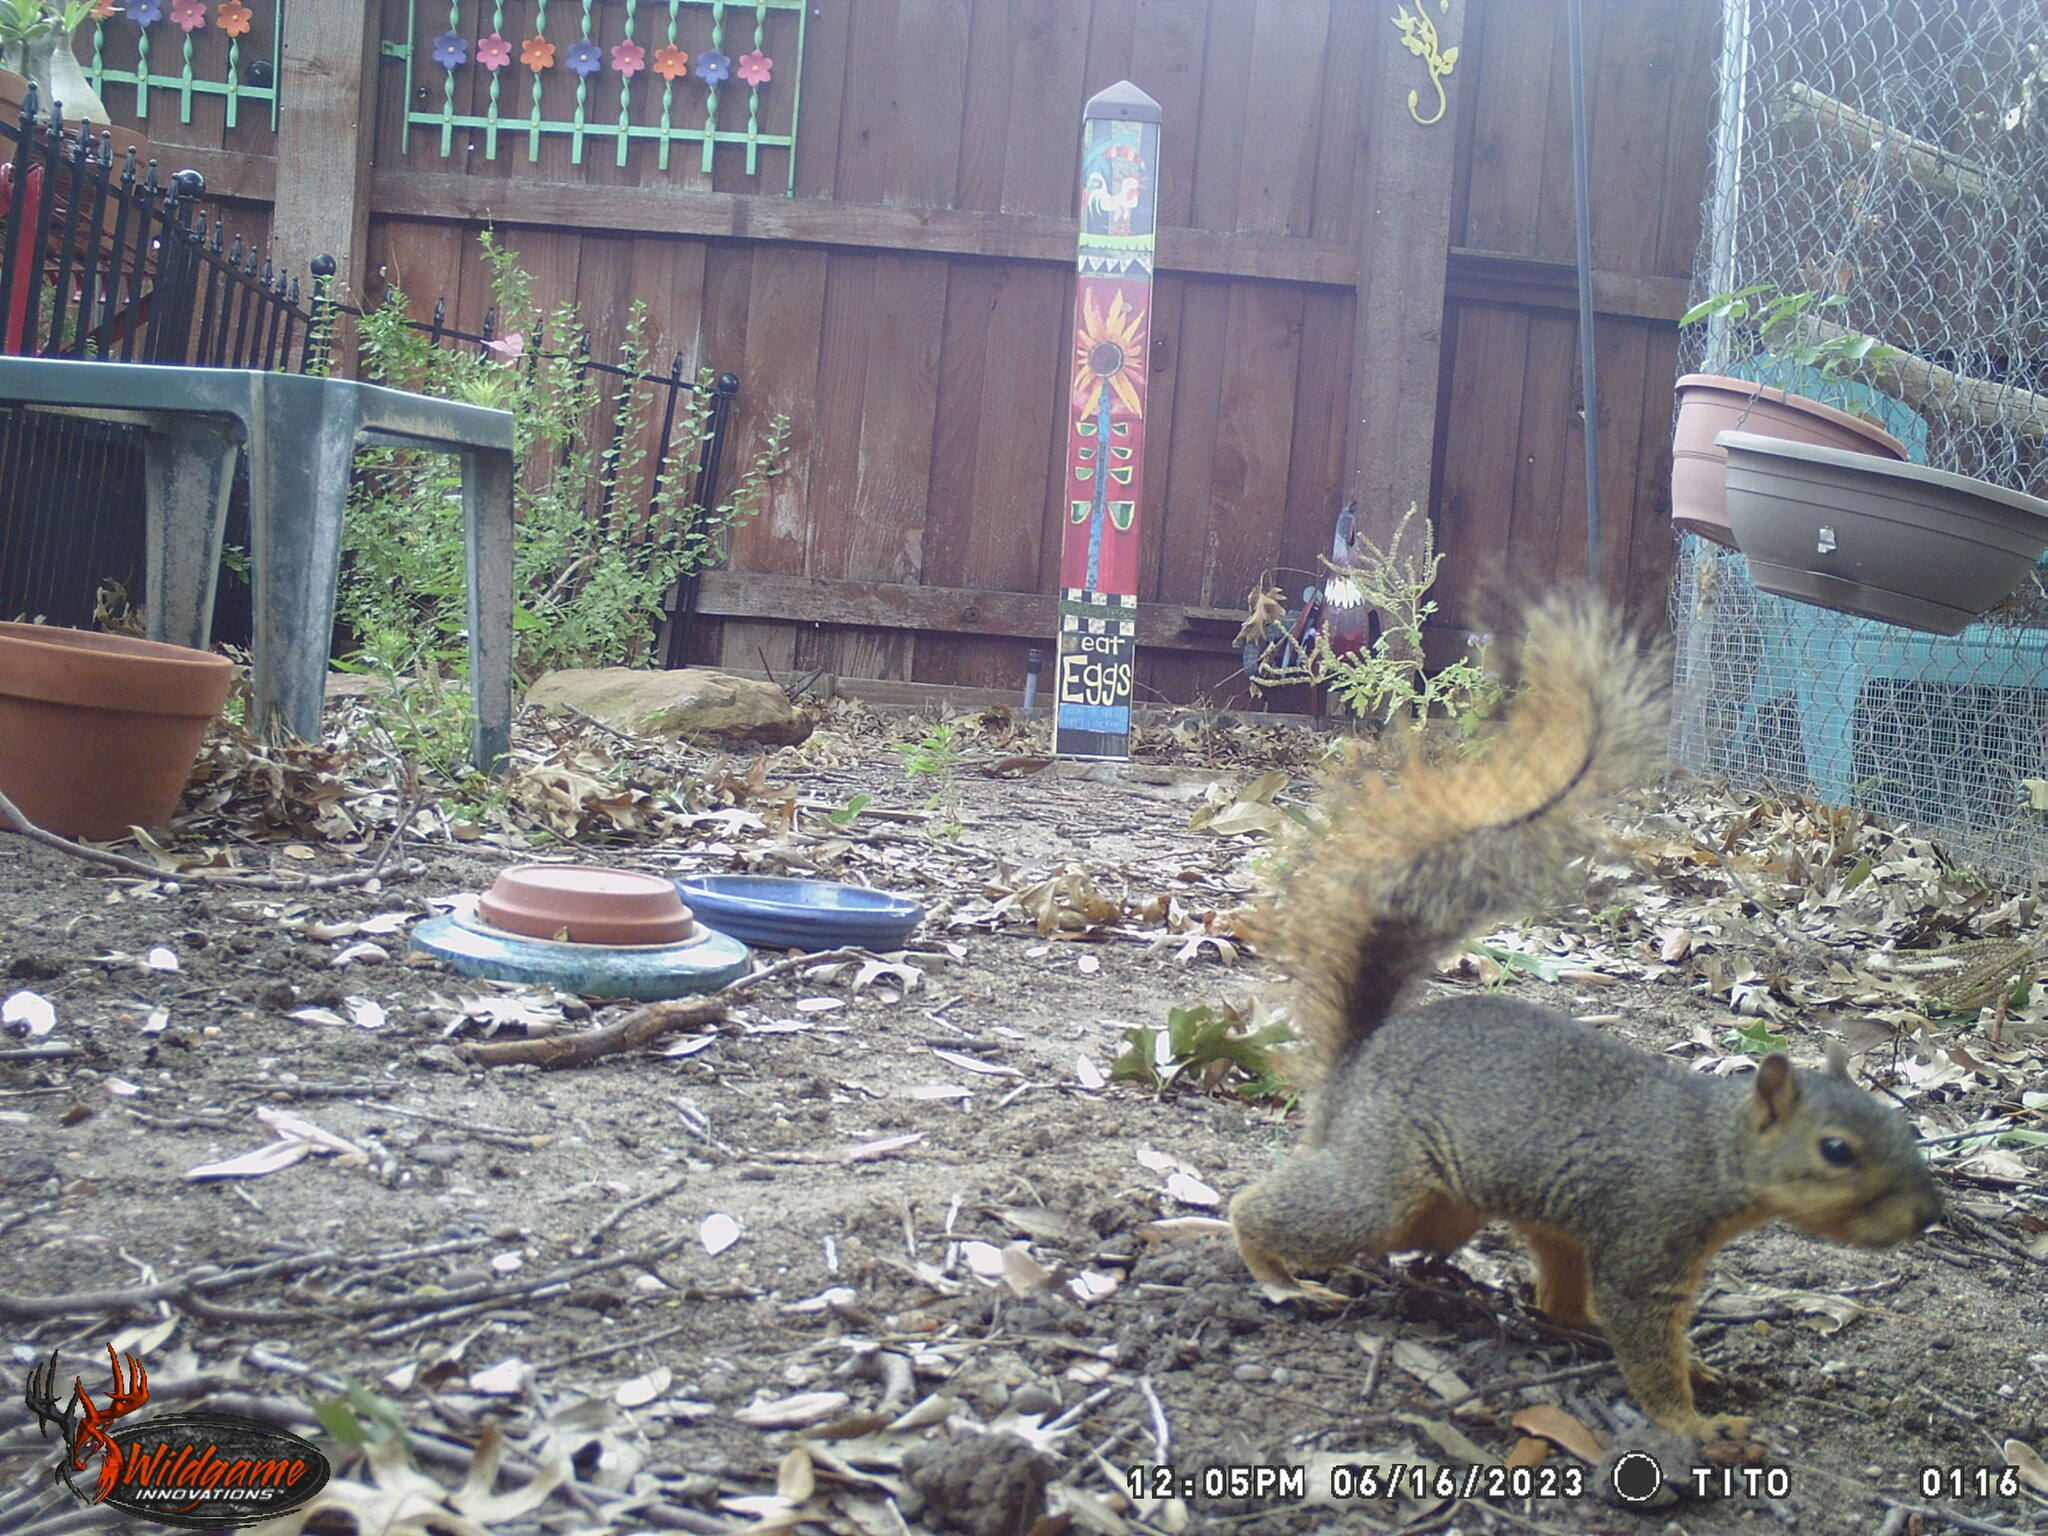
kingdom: Animalia
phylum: Chordata
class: Mammalia
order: Rodentia
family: Sciuridae
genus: Sciurus
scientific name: Sciurus niger
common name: Fox squirrel
